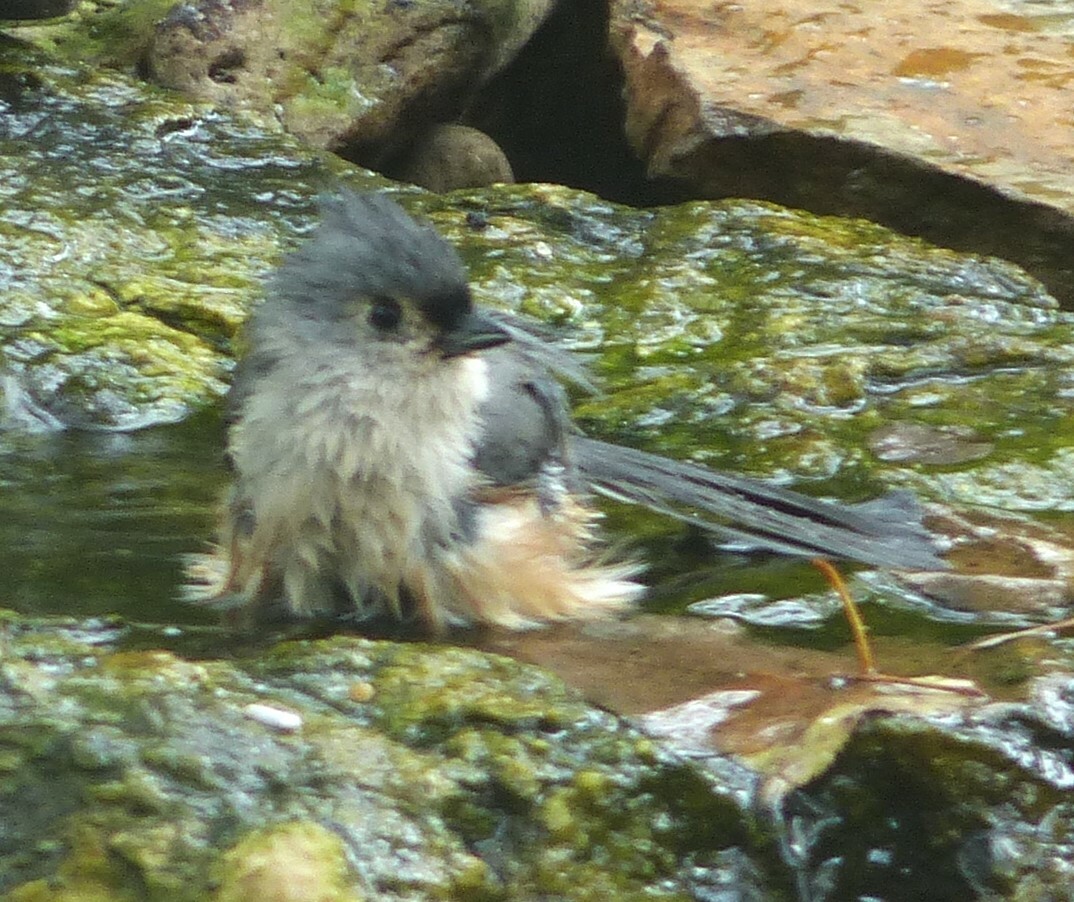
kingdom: Animalia
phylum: Chordata
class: Aves
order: Passeriformes
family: Paridae
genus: Baeolophus
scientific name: Baeolophus bicolor
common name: Tufted titmouse
